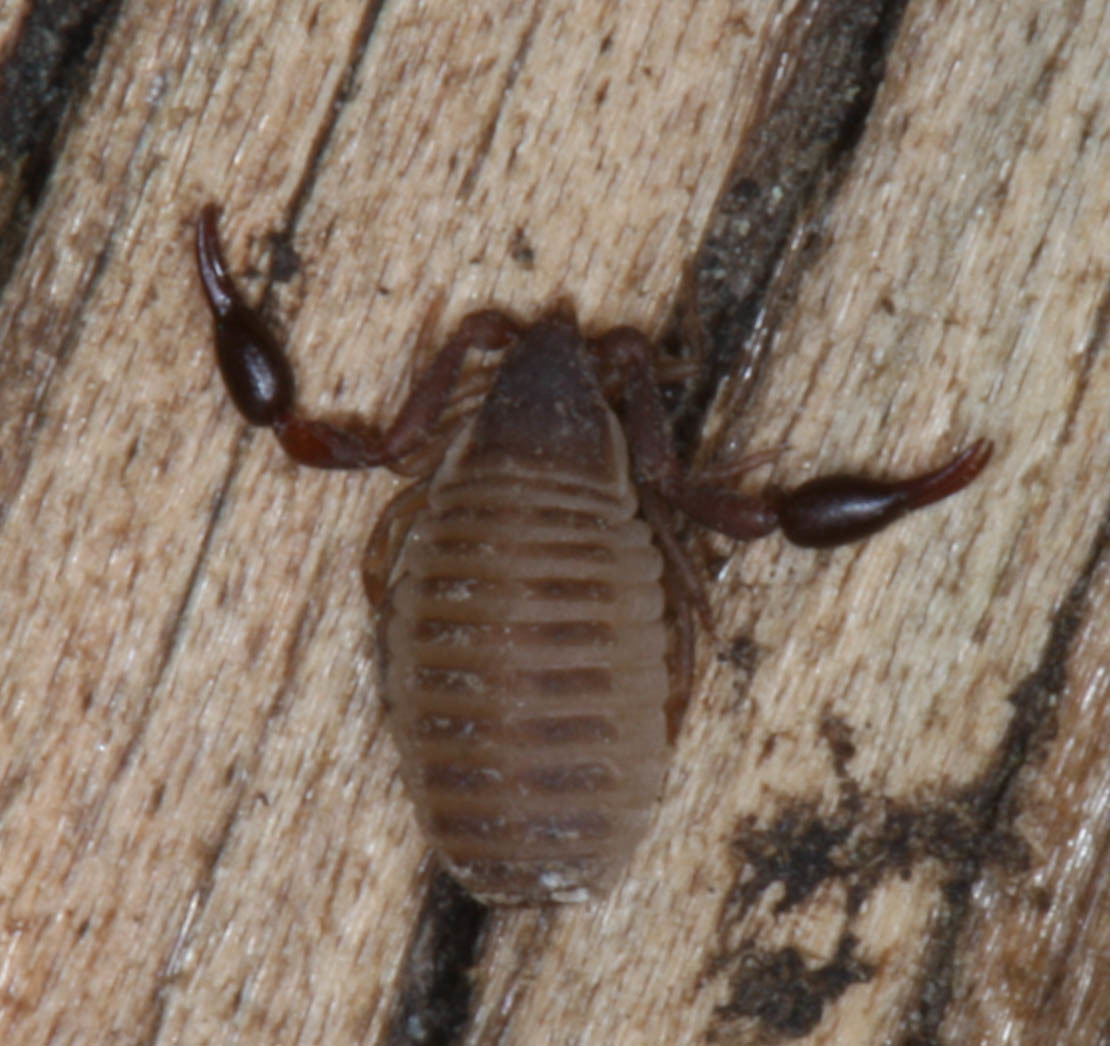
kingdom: Animalia
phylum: Arthropoda
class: Arachnida
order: Pseudoscorpiones
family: Garypidae
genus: Anchigarypus
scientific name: Anchigarypus californicus
